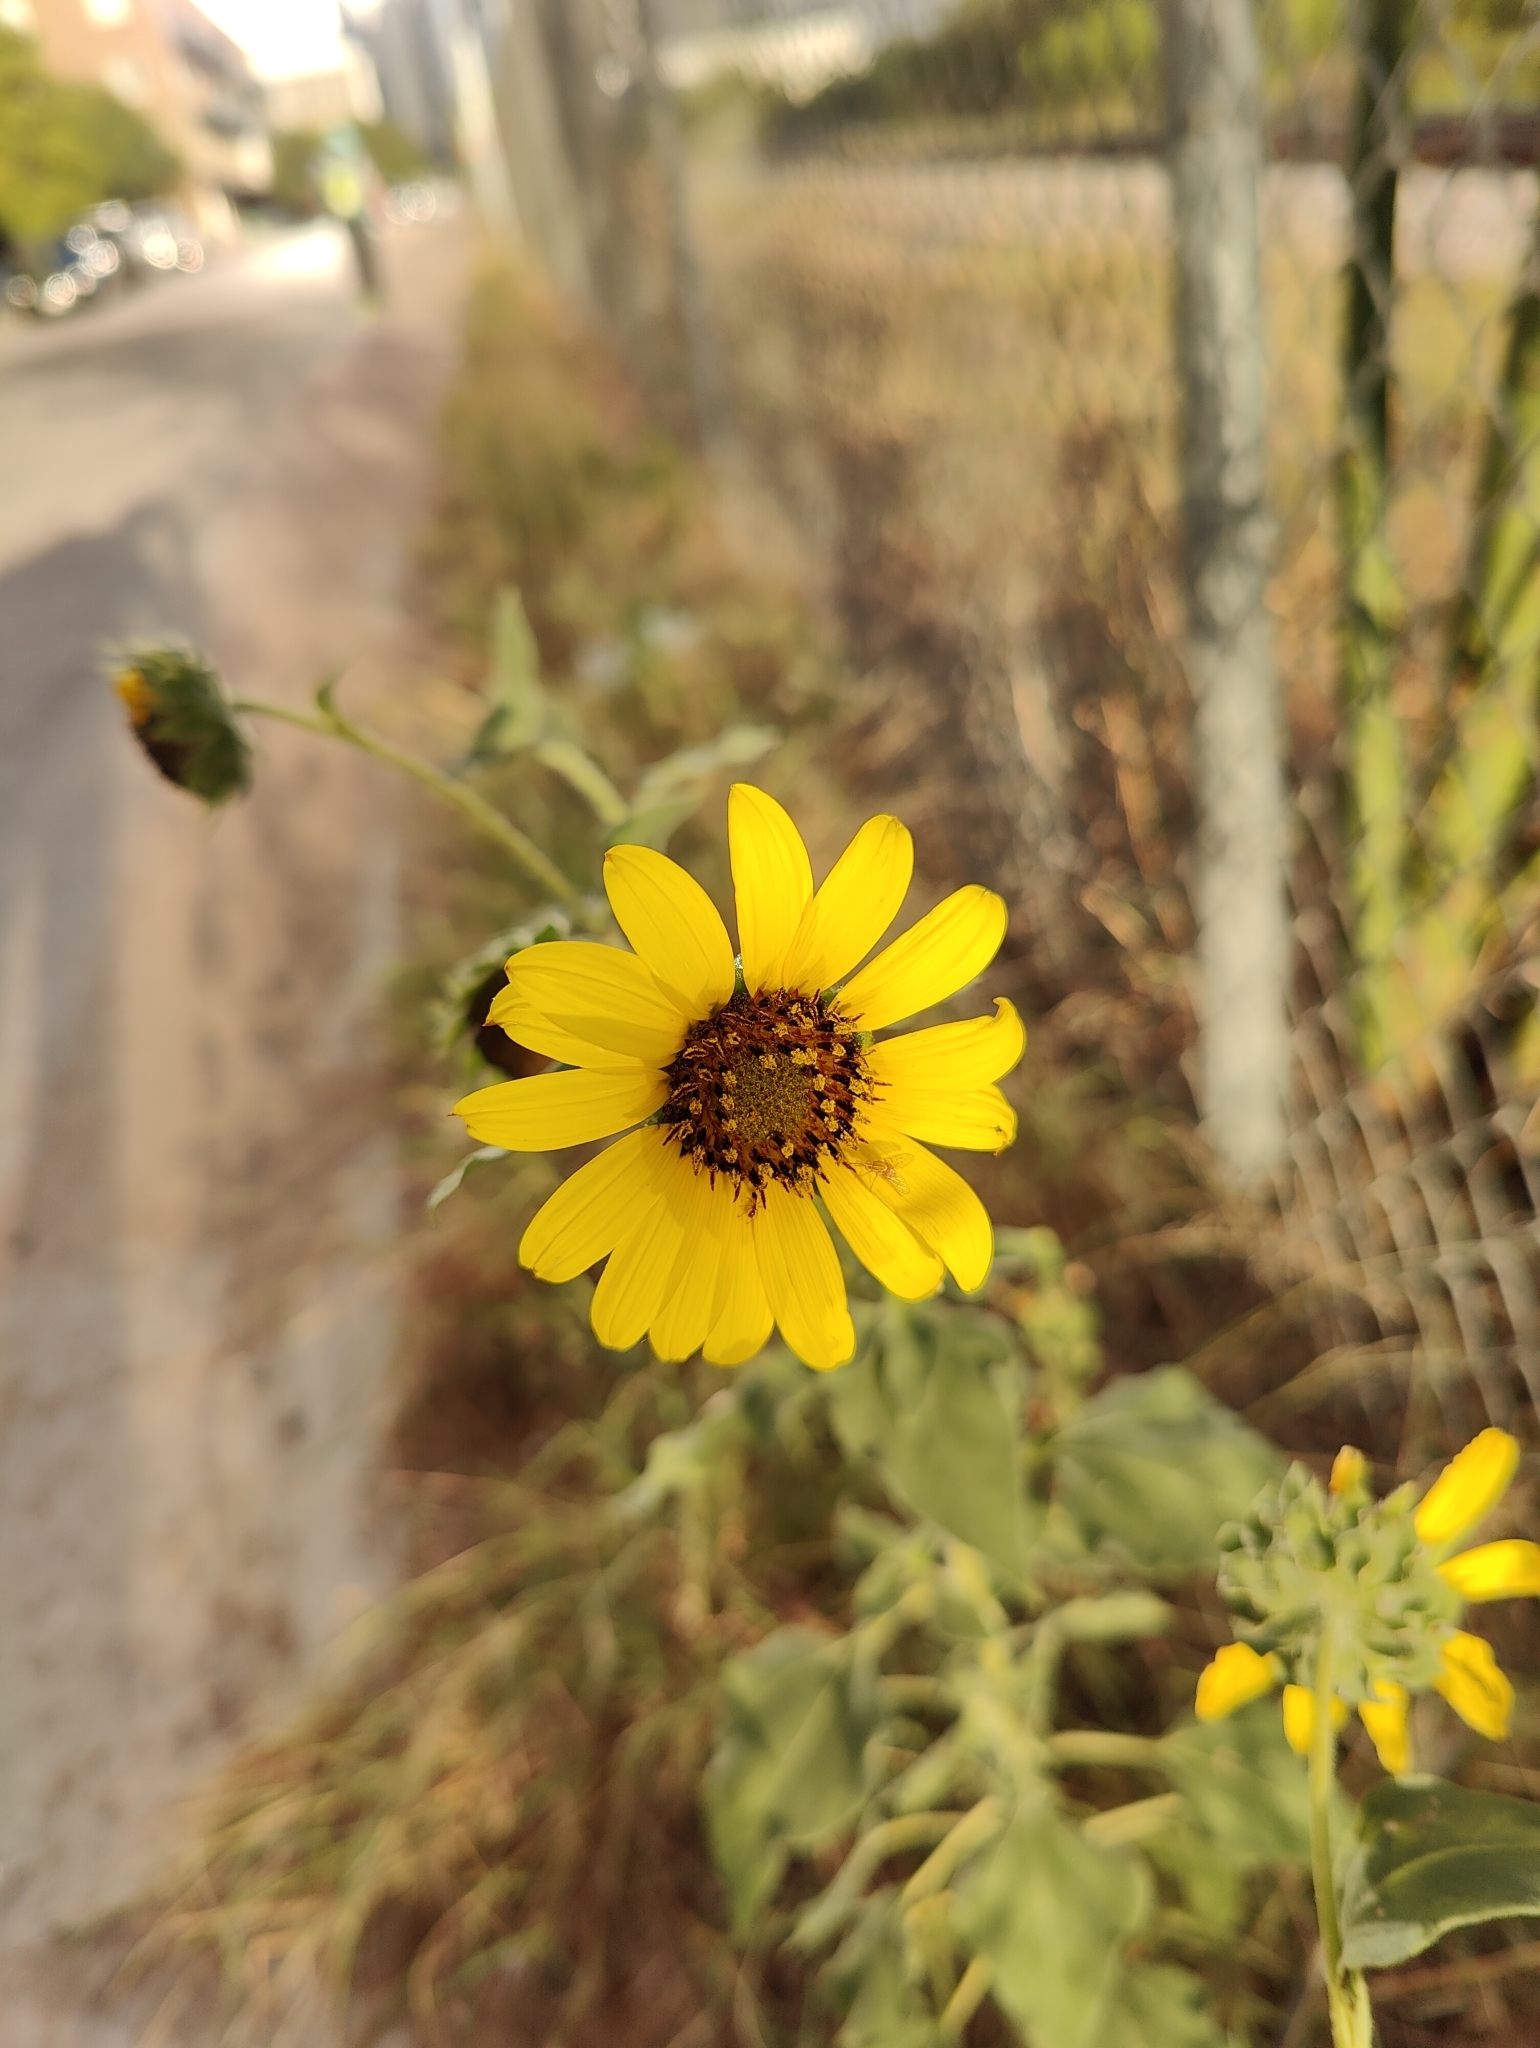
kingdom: Plantae
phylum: Tracheophyta
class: Magnoliopsida
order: Asterales
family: Asteraceae
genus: Helianthus
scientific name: Helianthus annuus
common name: Sunflower
